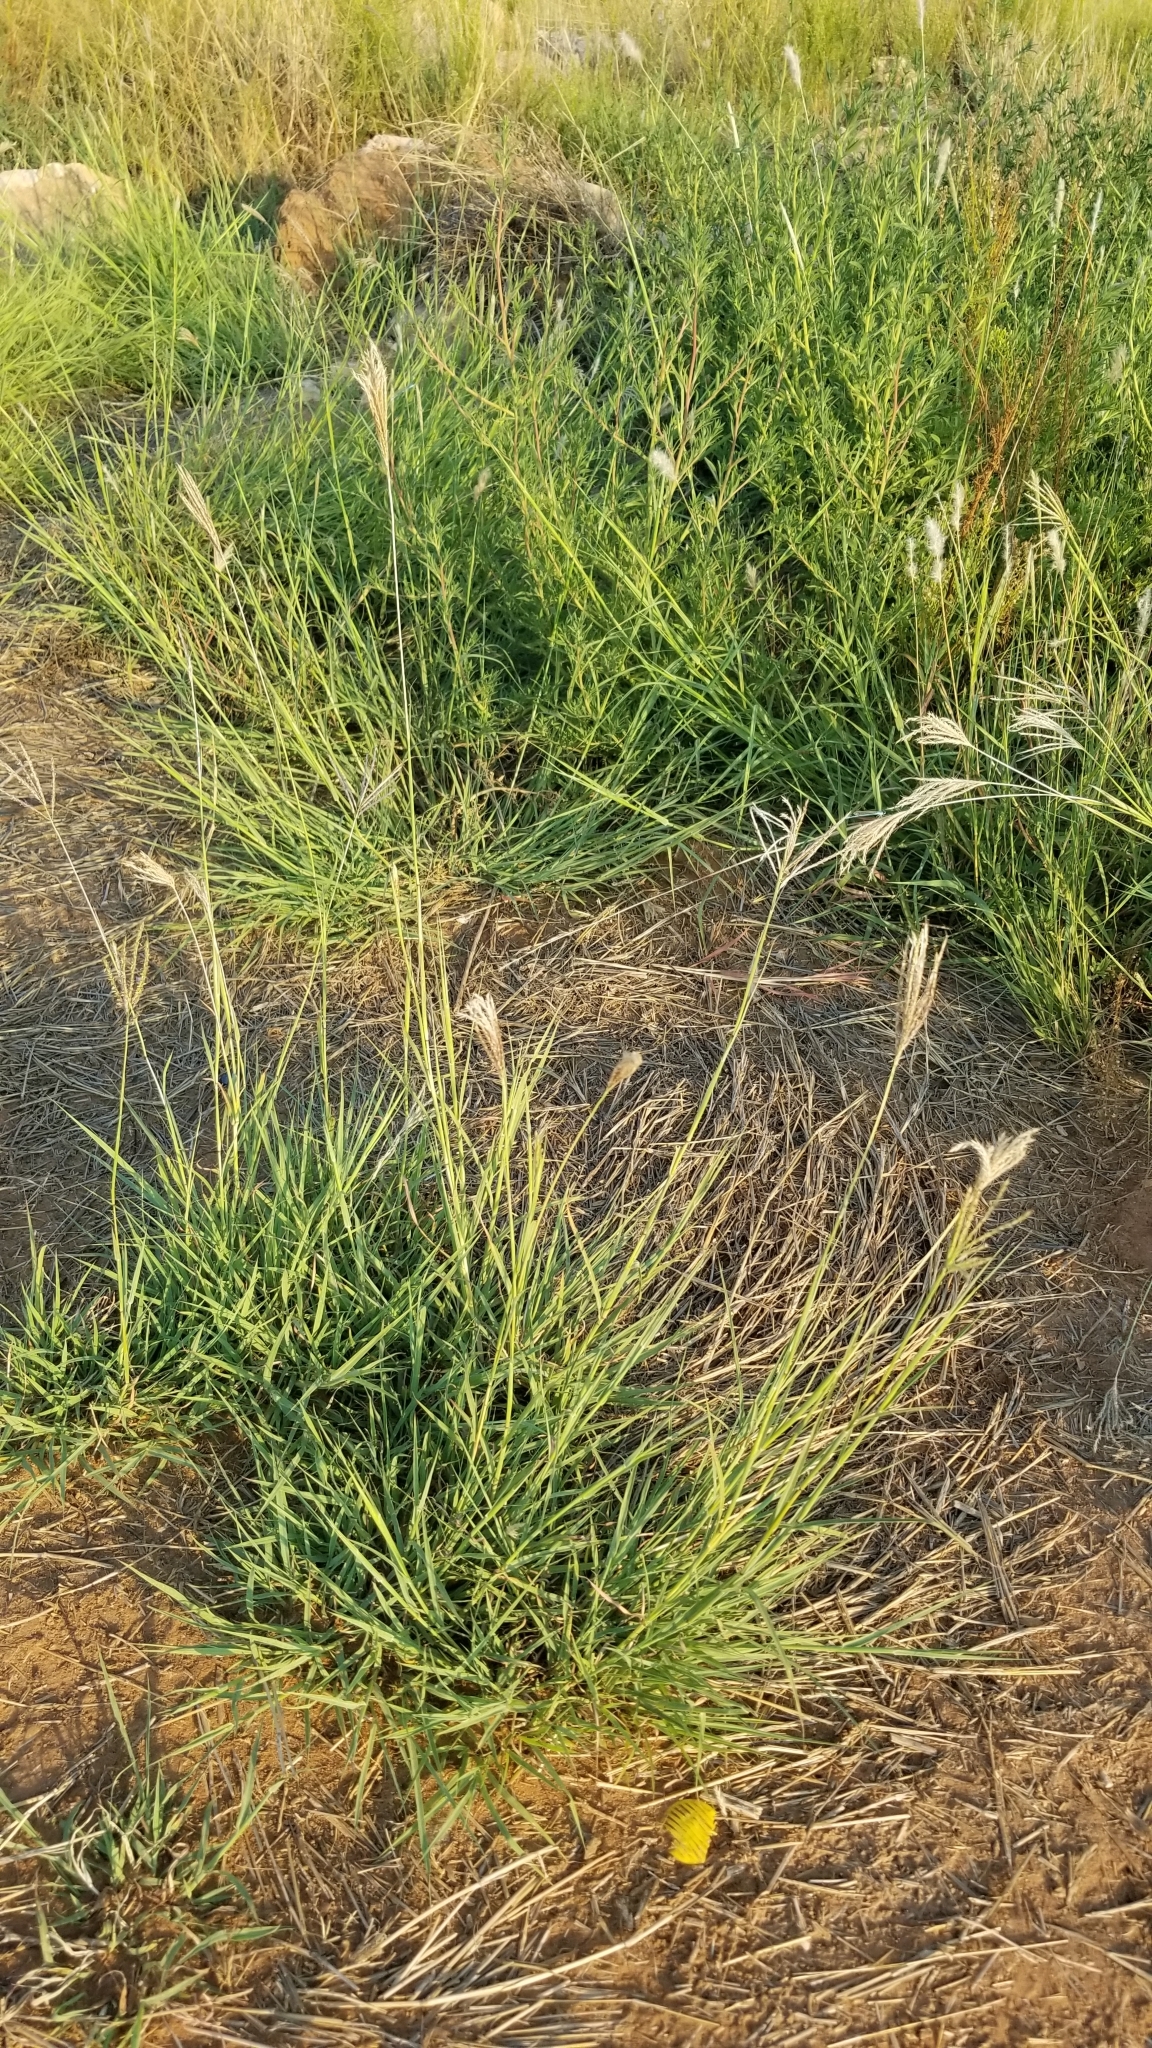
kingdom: Plantae
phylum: Tracheophyta
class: Liliopsida
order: Poales
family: Poaceae
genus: Bothriochloa
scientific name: Bothriochloa ischaemum
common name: Yellow bluestem
